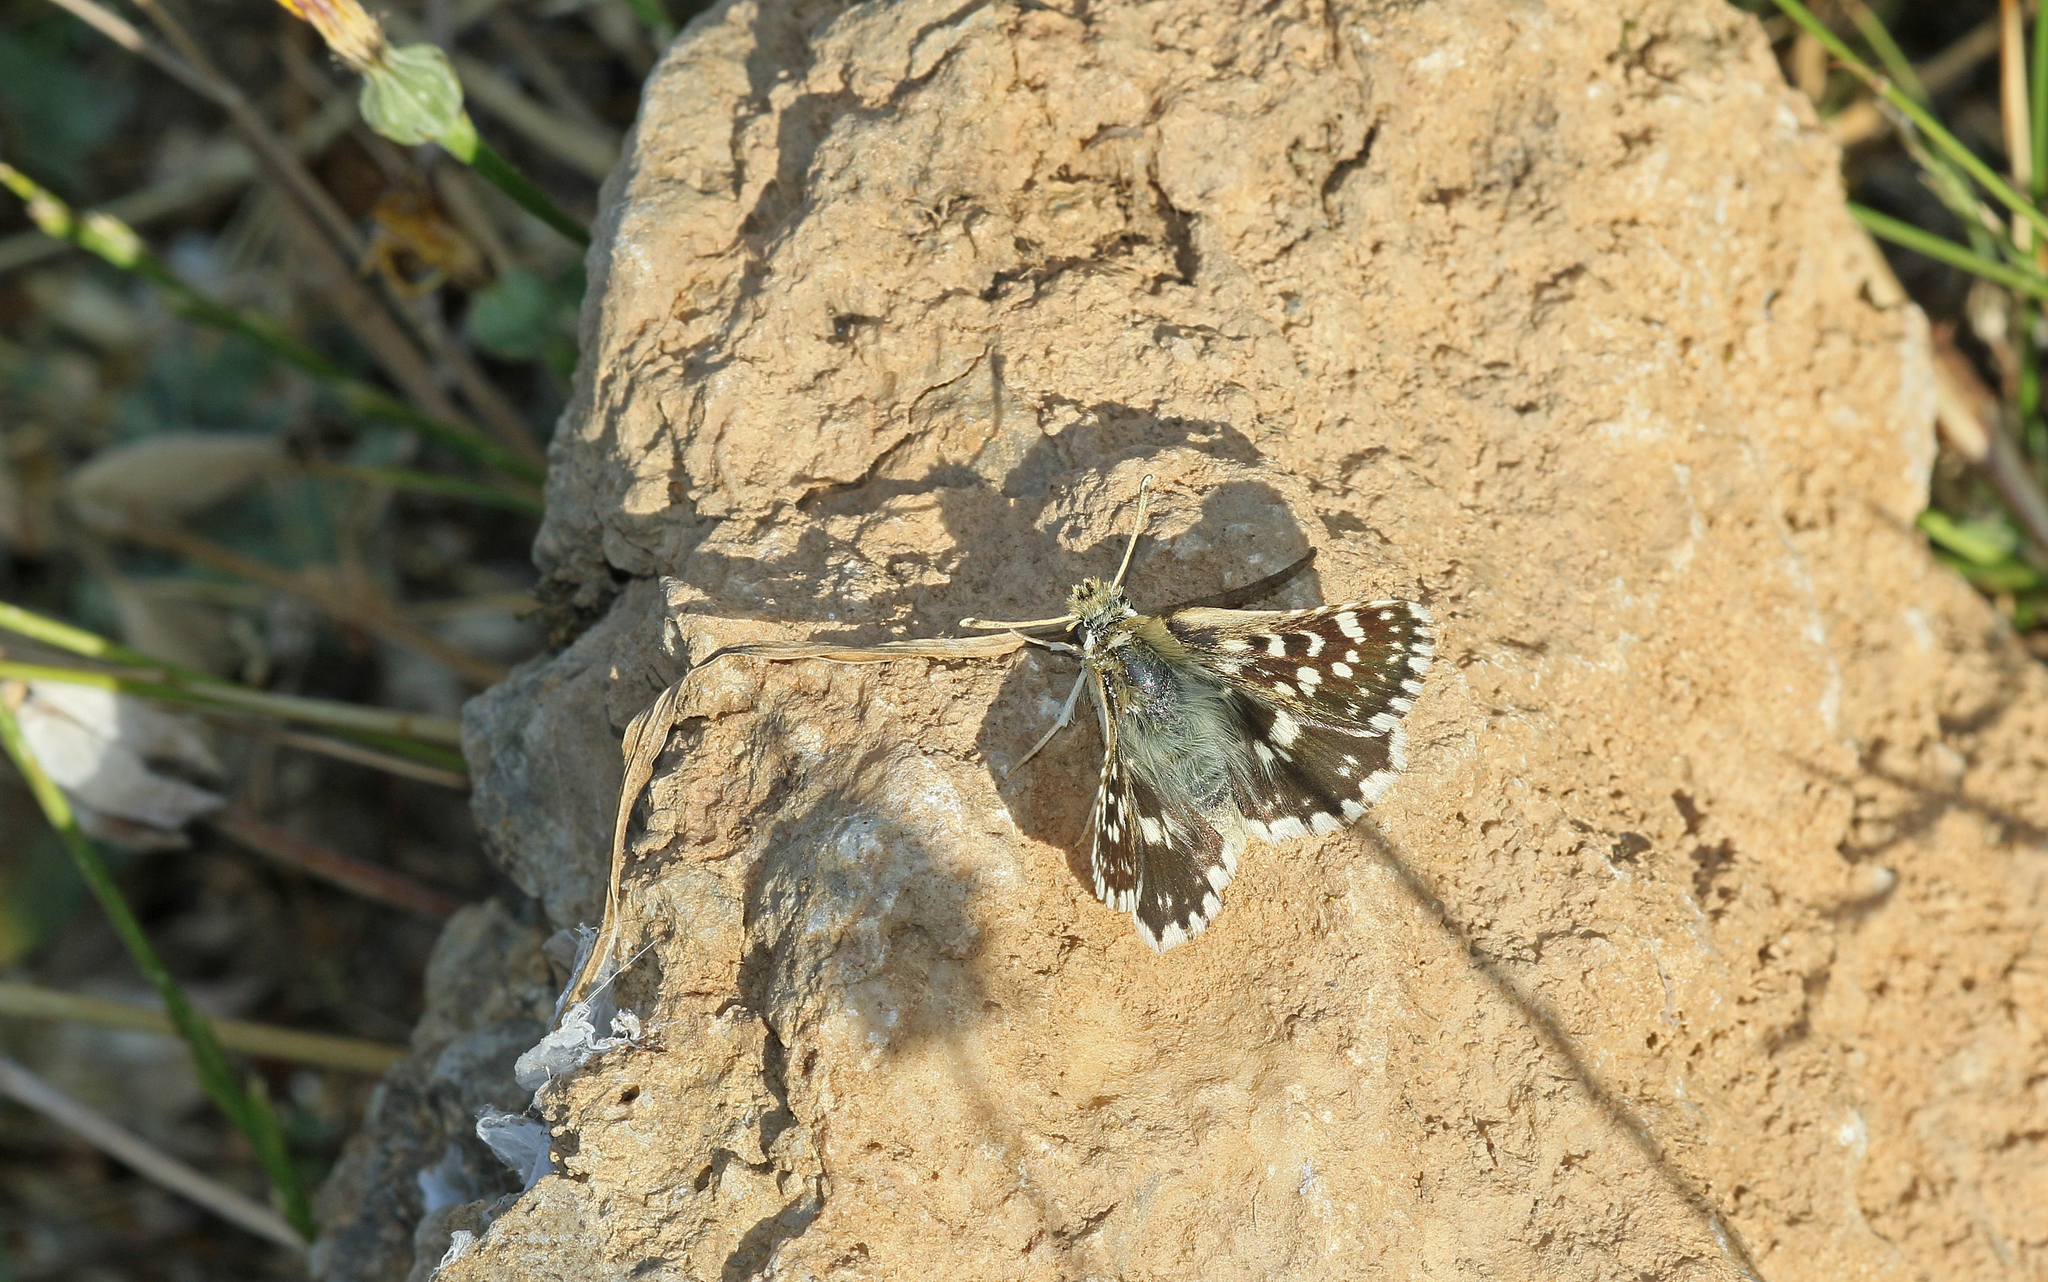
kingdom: Animalia
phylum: Arthropoda
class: Insecta
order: Lepidoptera
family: Hesperiidae
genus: Spialia
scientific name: Spialia phlomidis
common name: Persian skipper
